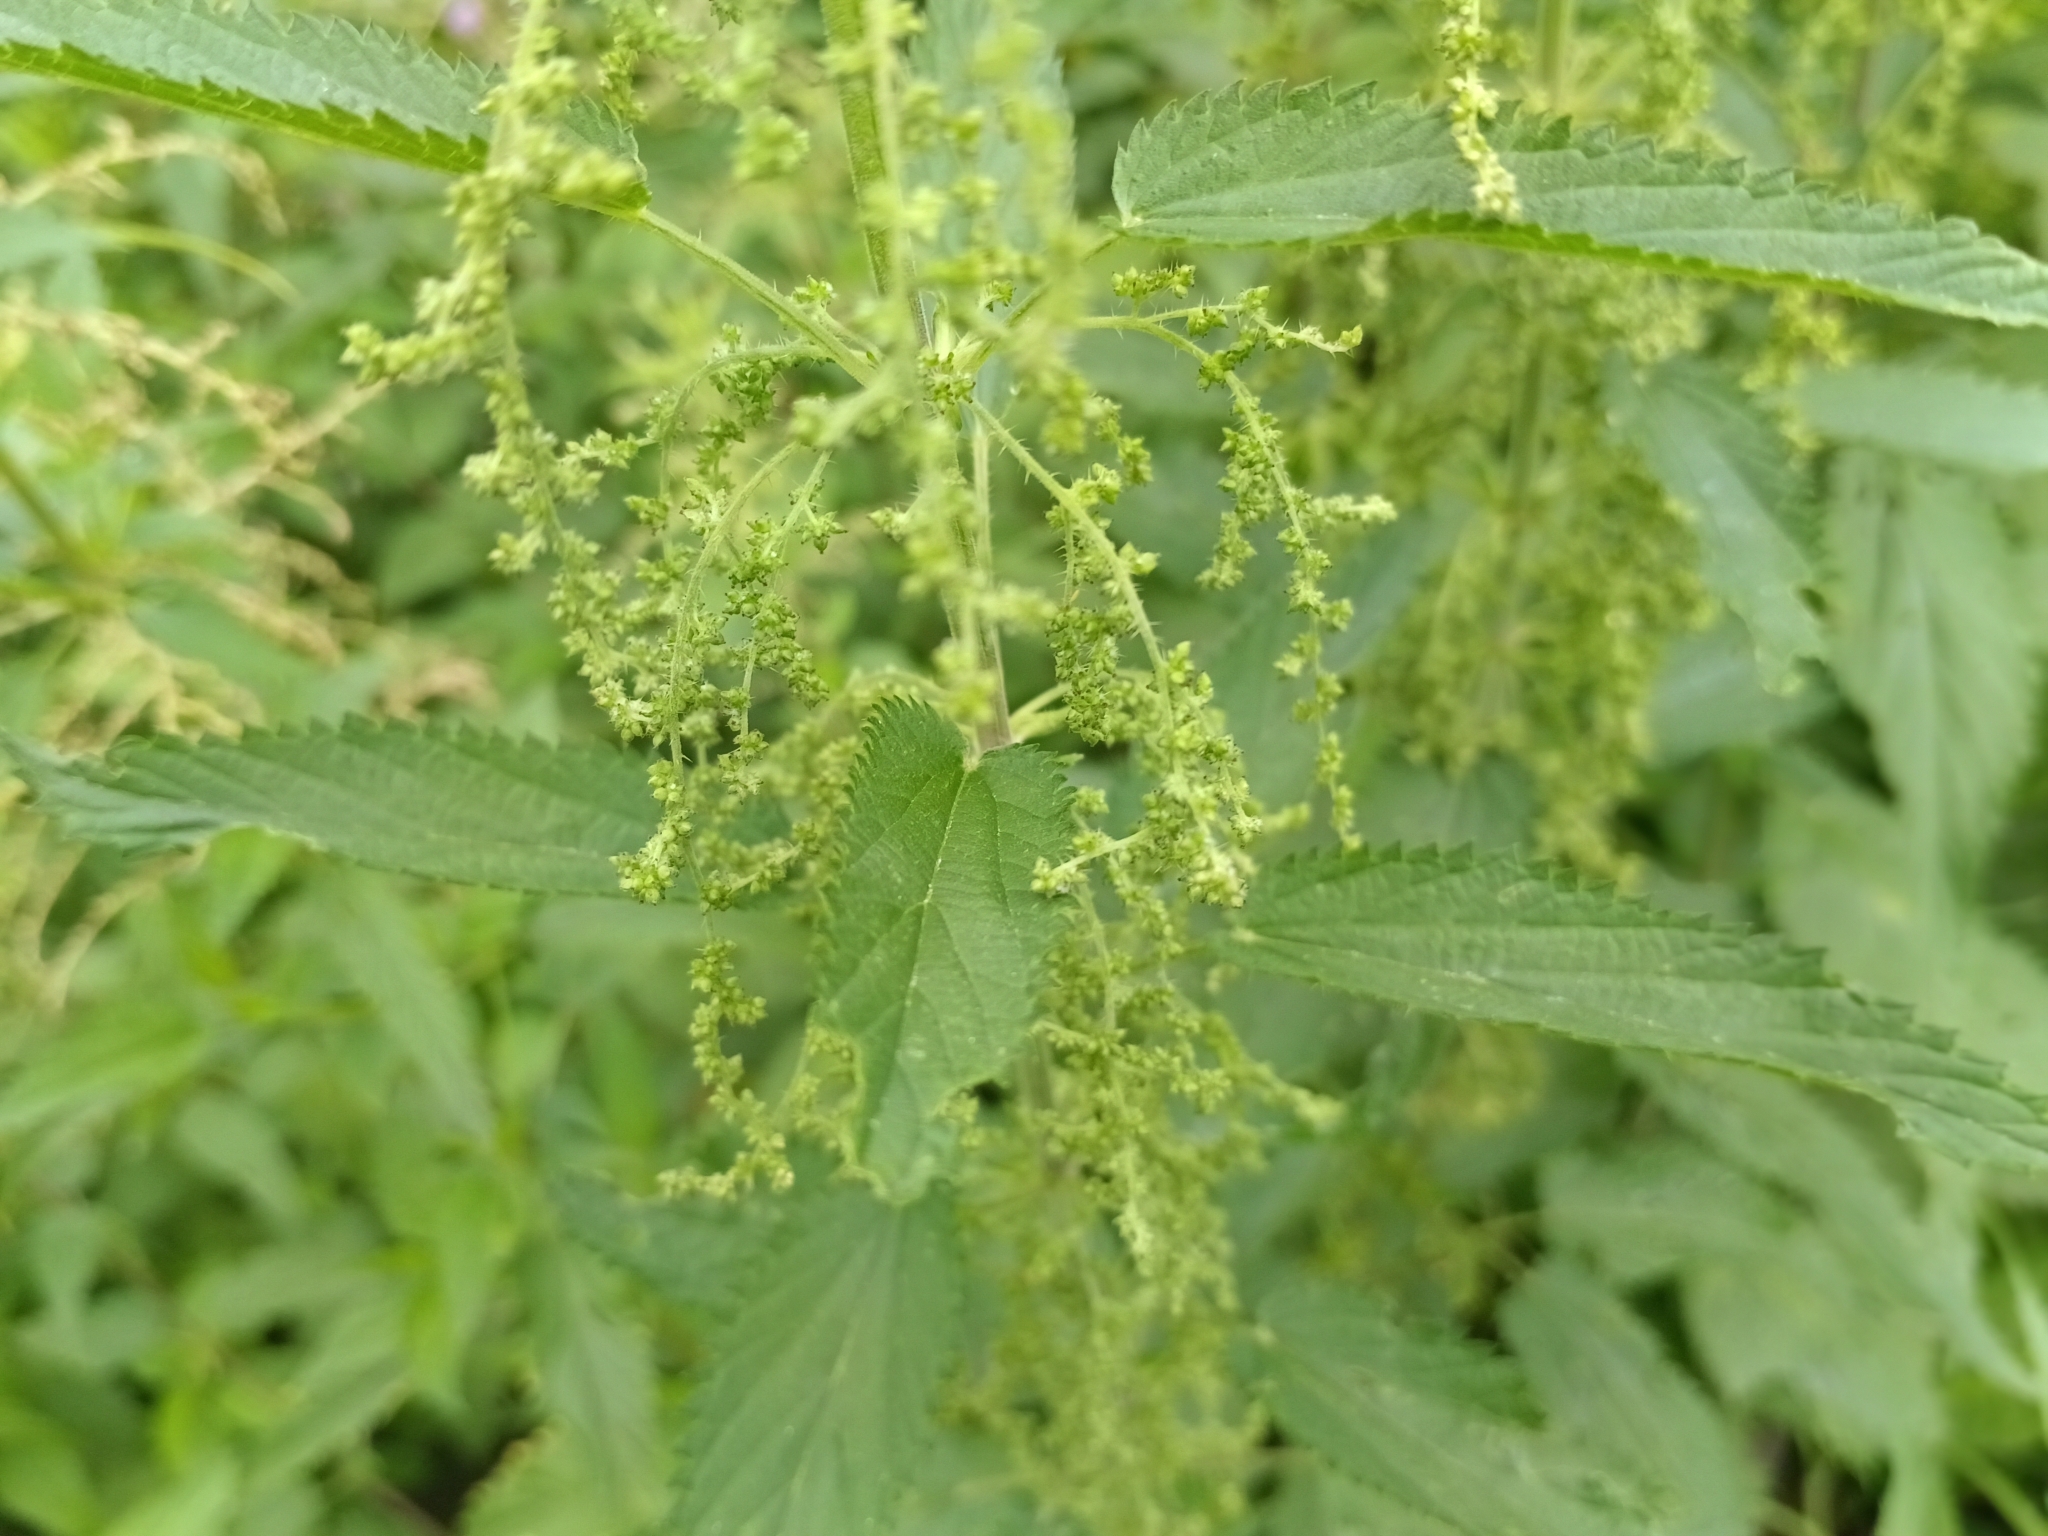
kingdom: Plantae
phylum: Tracheophyta
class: Magnoliopsida
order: Rosales
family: Urticaceae
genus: Urtica
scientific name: Urtica dioica
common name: Common nettle
